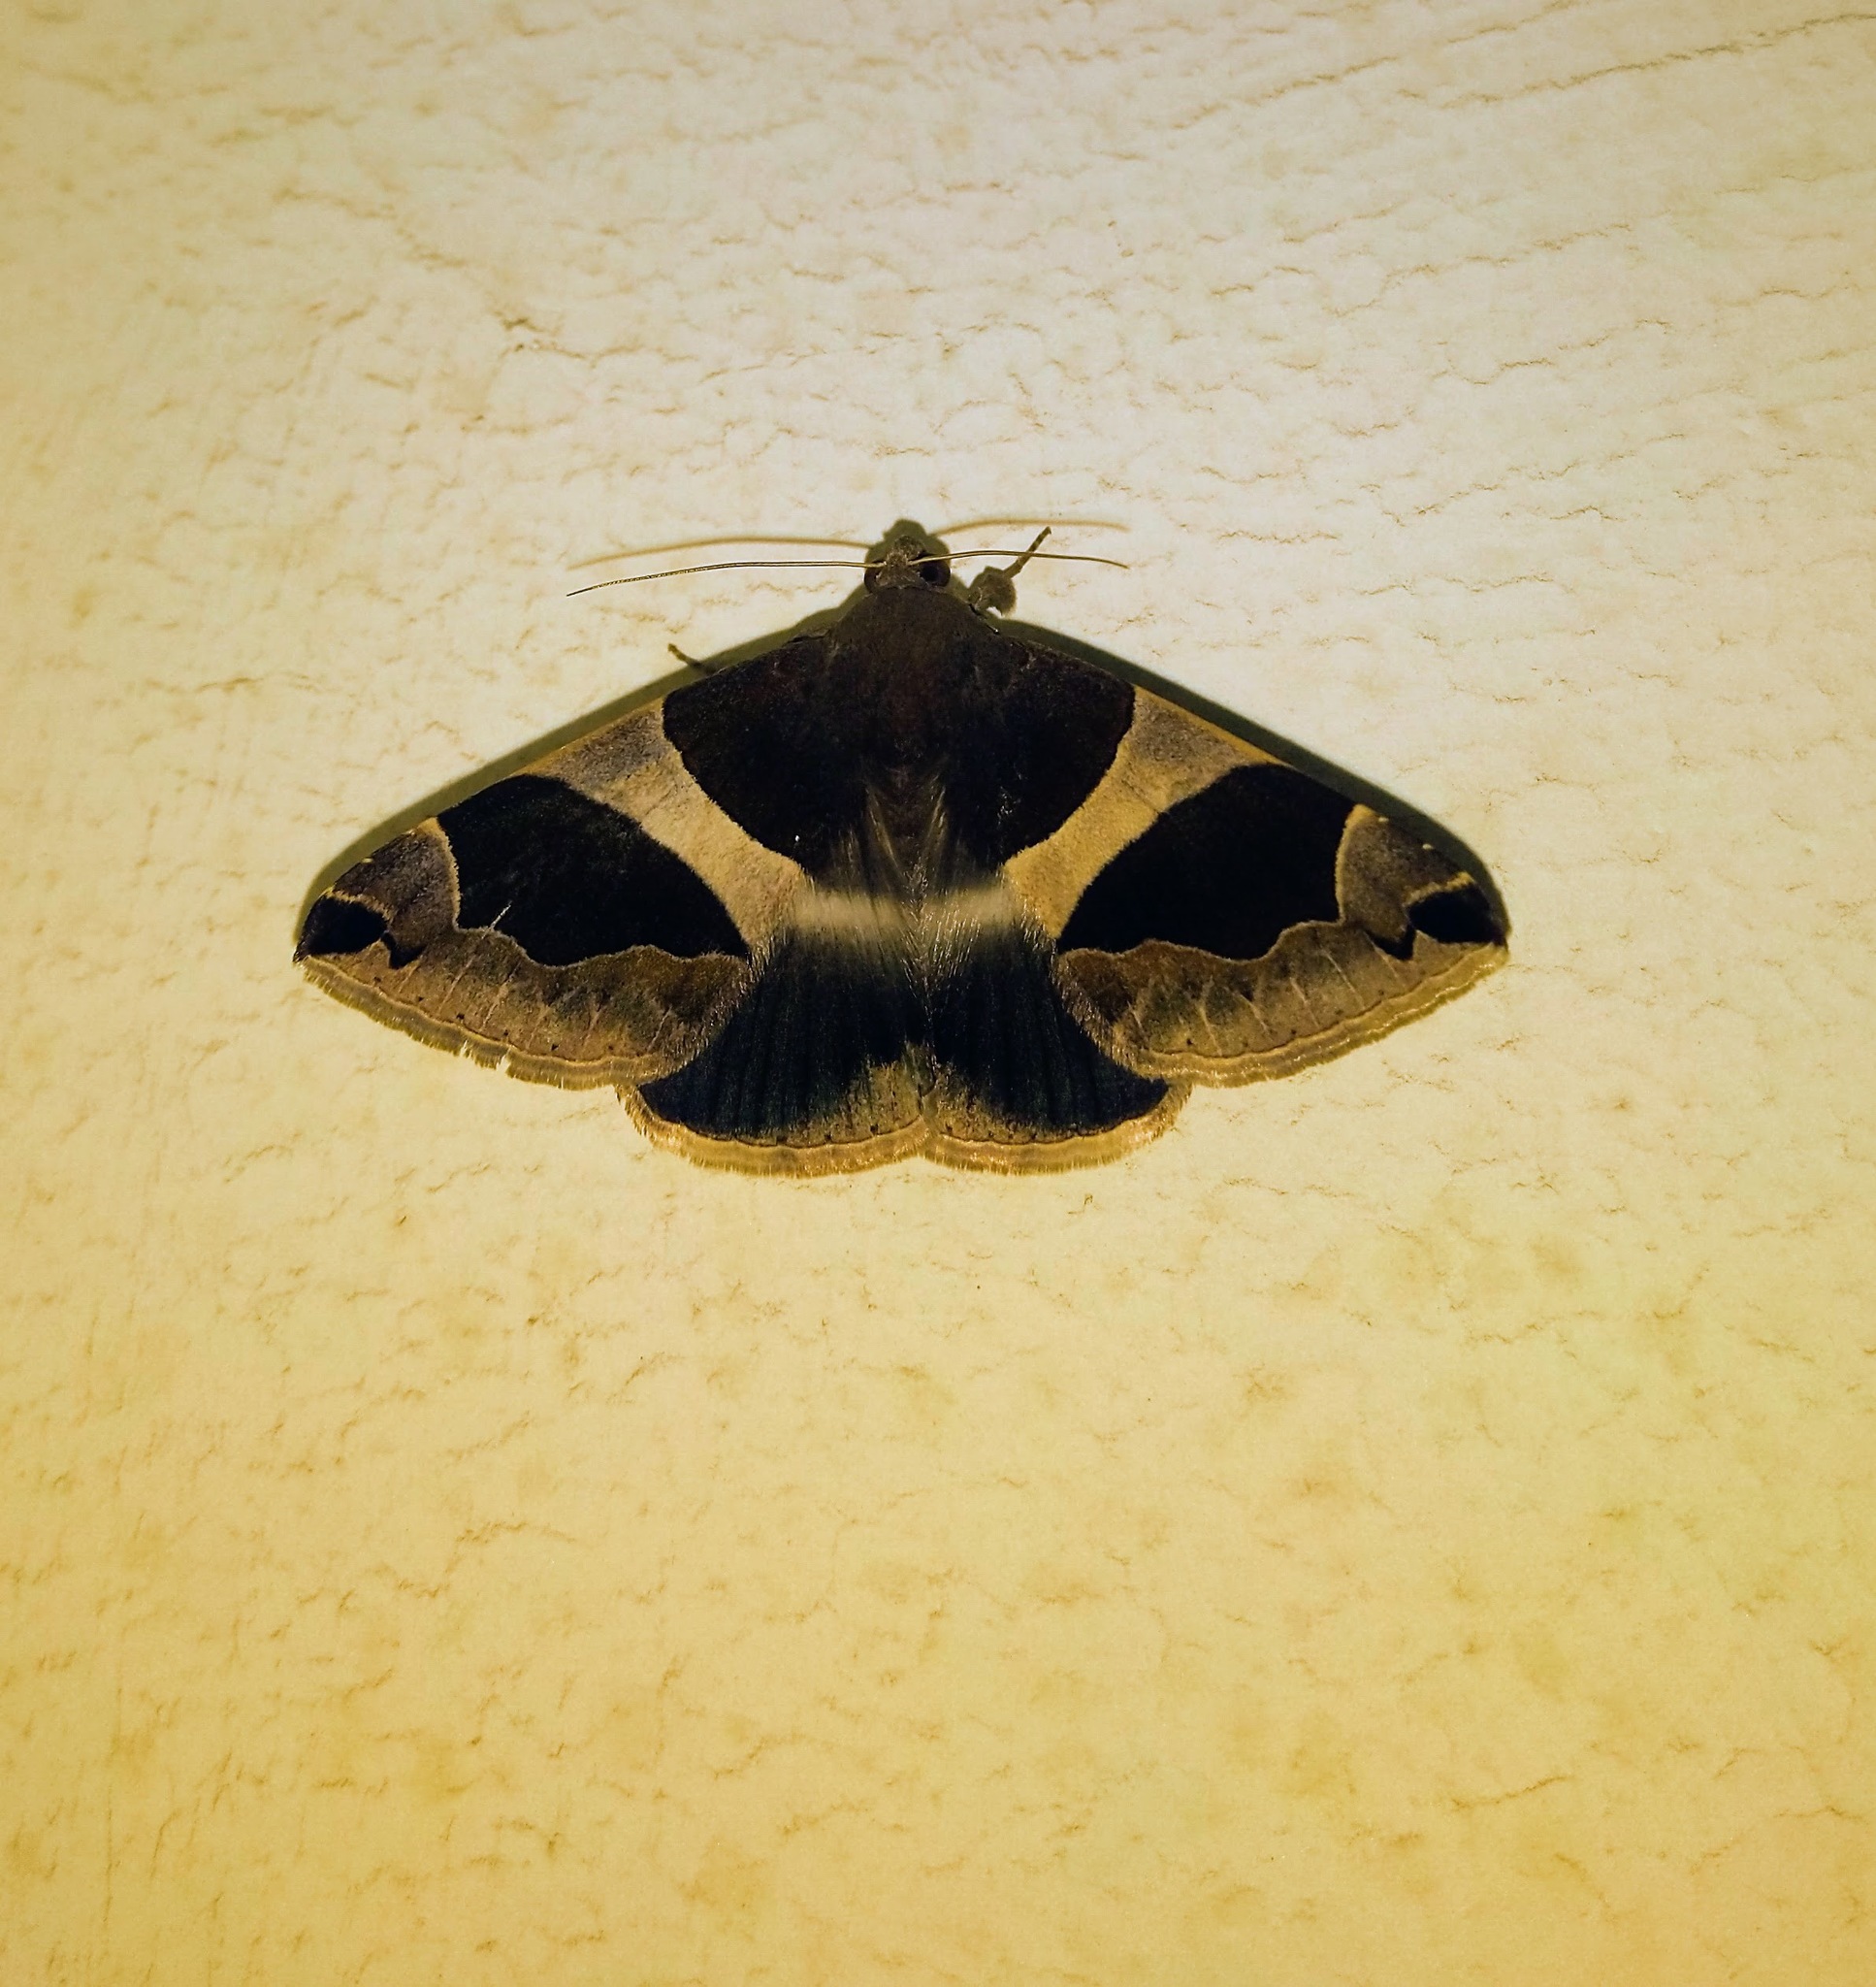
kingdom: Animalia
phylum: Arthropoda
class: Insecta
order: Lepidoptera
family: Erebidae
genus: Dysgonia
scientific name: Dysgonia algira
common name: Passenger
